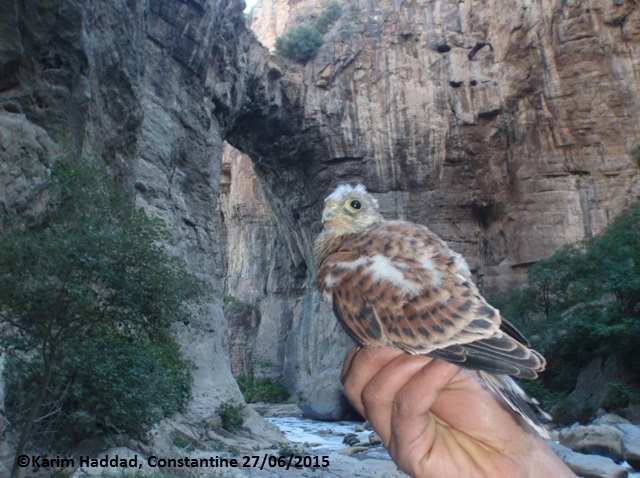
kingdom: Animalia
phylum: Chordata
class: Aves
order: Falconiformes
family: Falconidae
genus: Falco
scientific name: Falco tinnunculus
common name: Common kestrel
